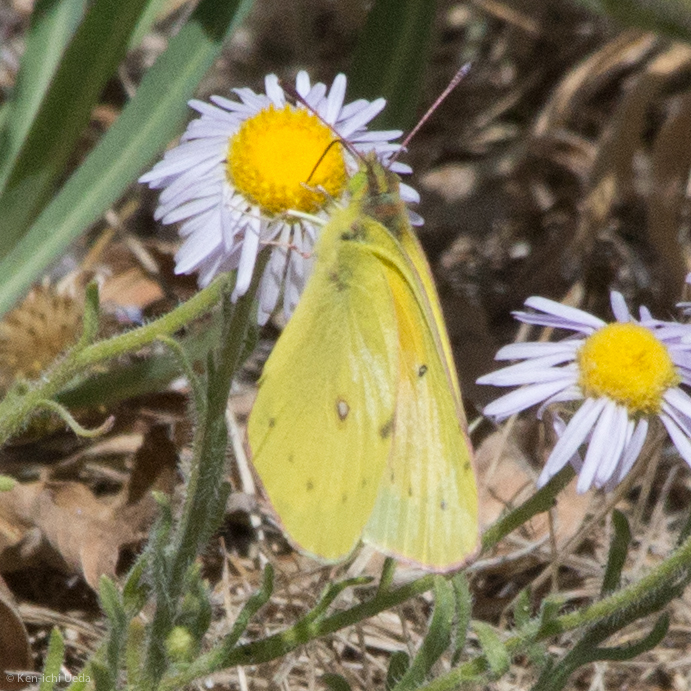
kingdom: Animalia
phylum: Arthropoda
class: Insecta
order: Lepidoptera
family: Pieridae
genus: Colias
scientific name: Colias eurytheme
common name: Alfalfa butterfly
